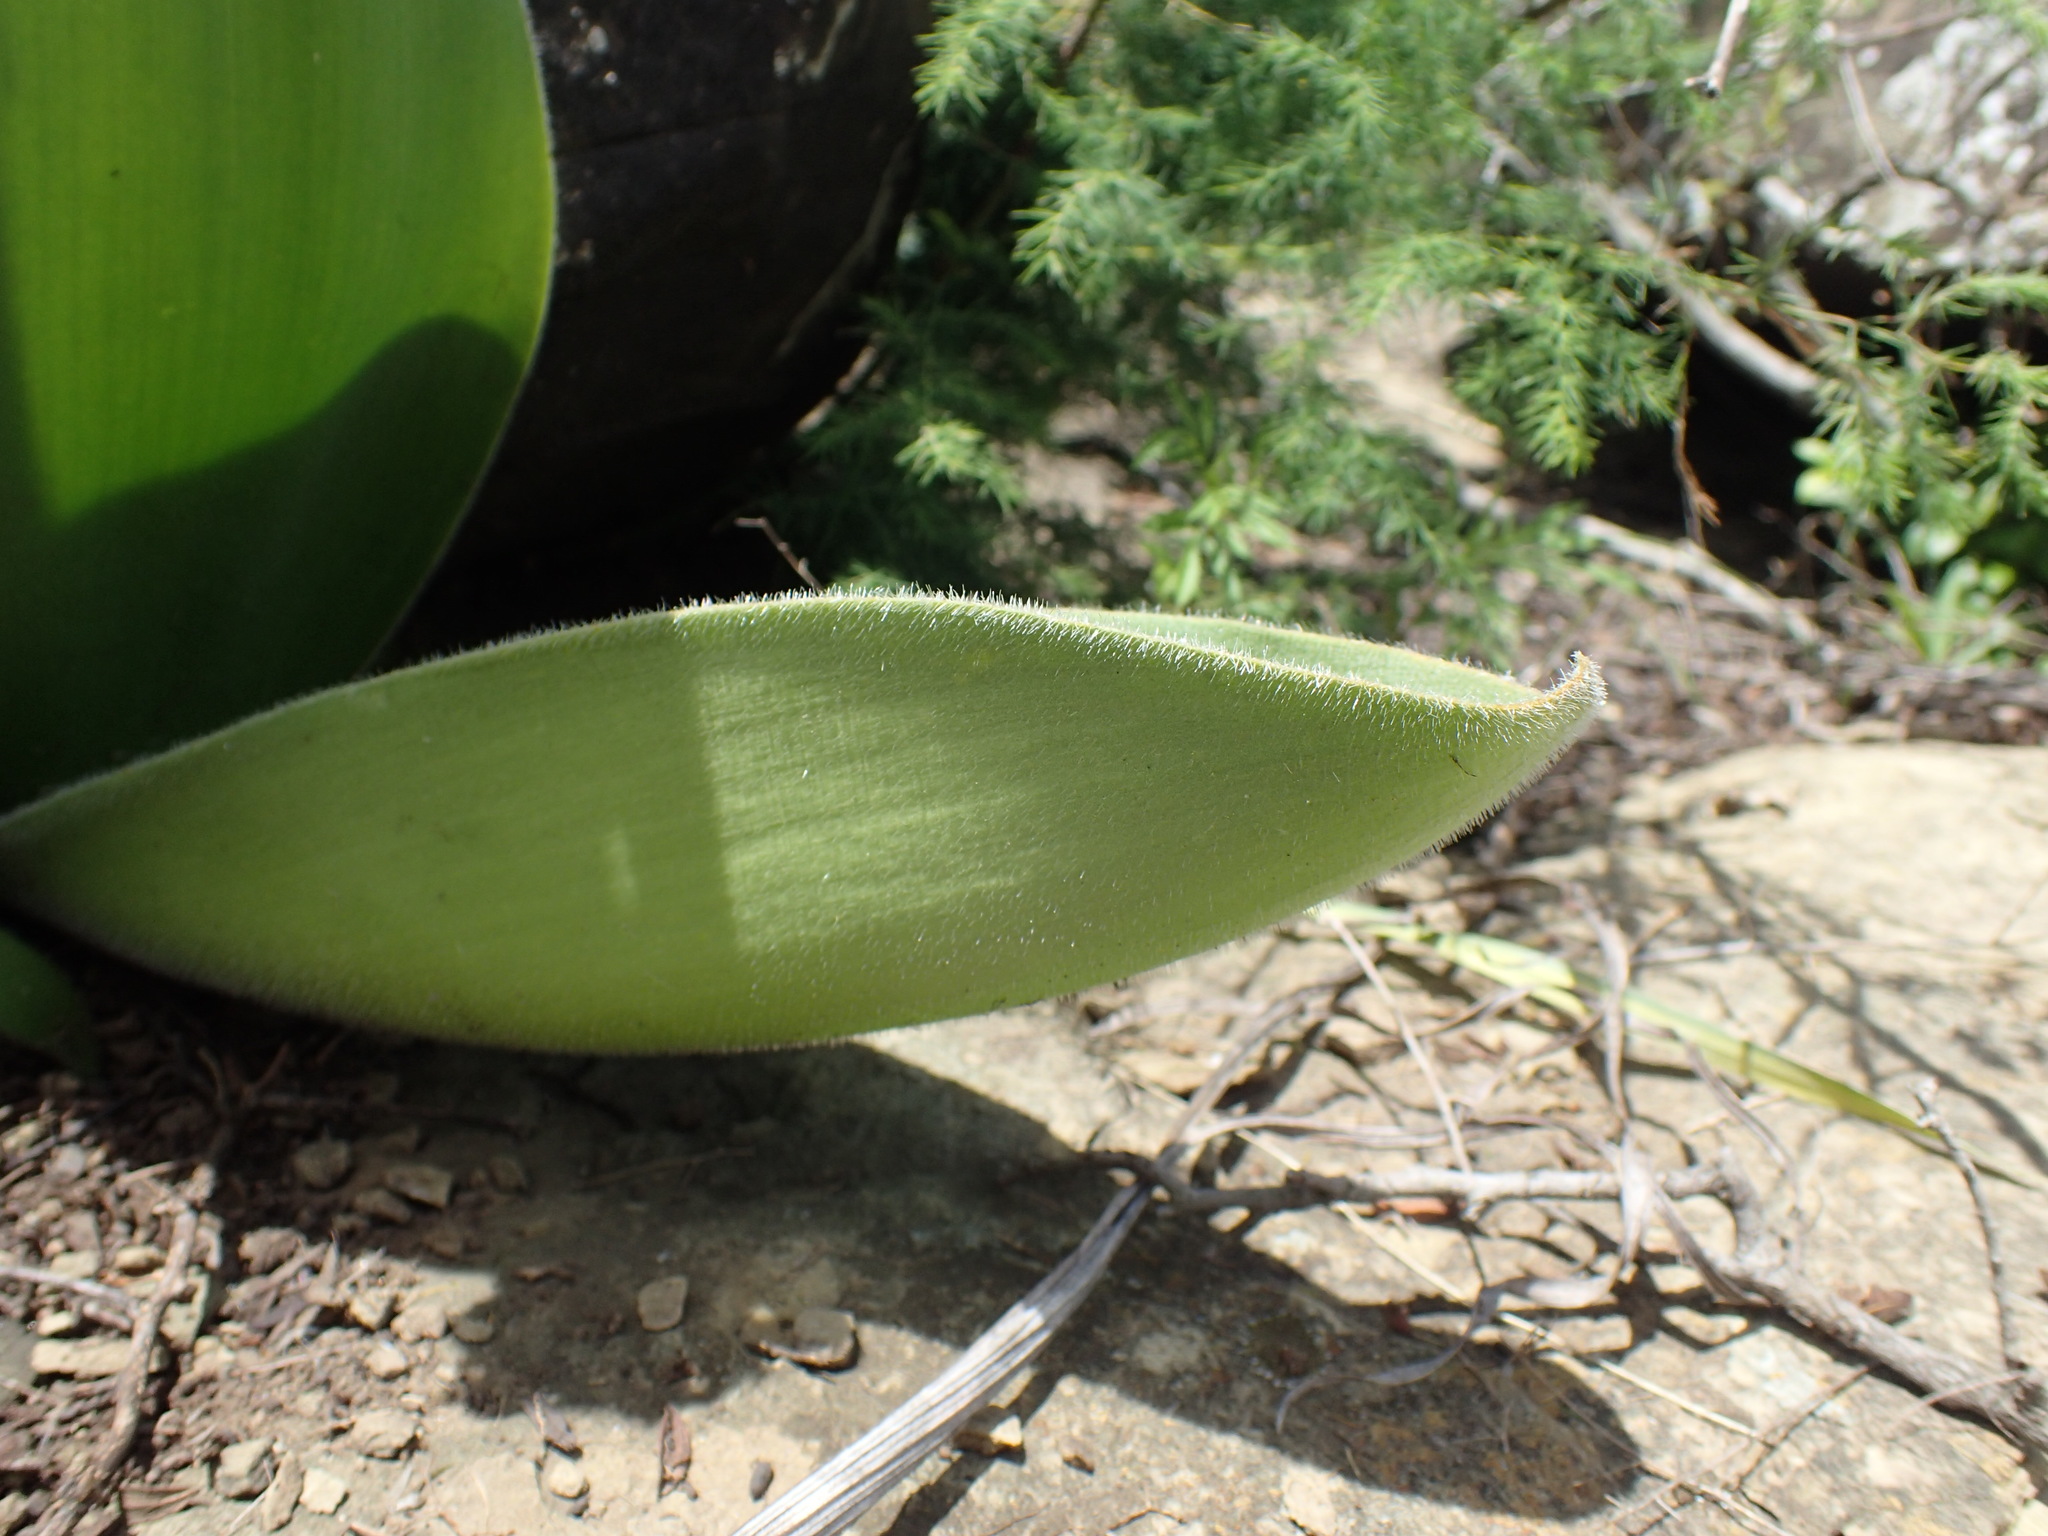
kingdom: Plantae
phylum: Tracheophyta
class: Liliopsida
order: Asparagales
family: Amaryllidaceae
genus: Haemanthus
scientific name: Haemanthus humilis
